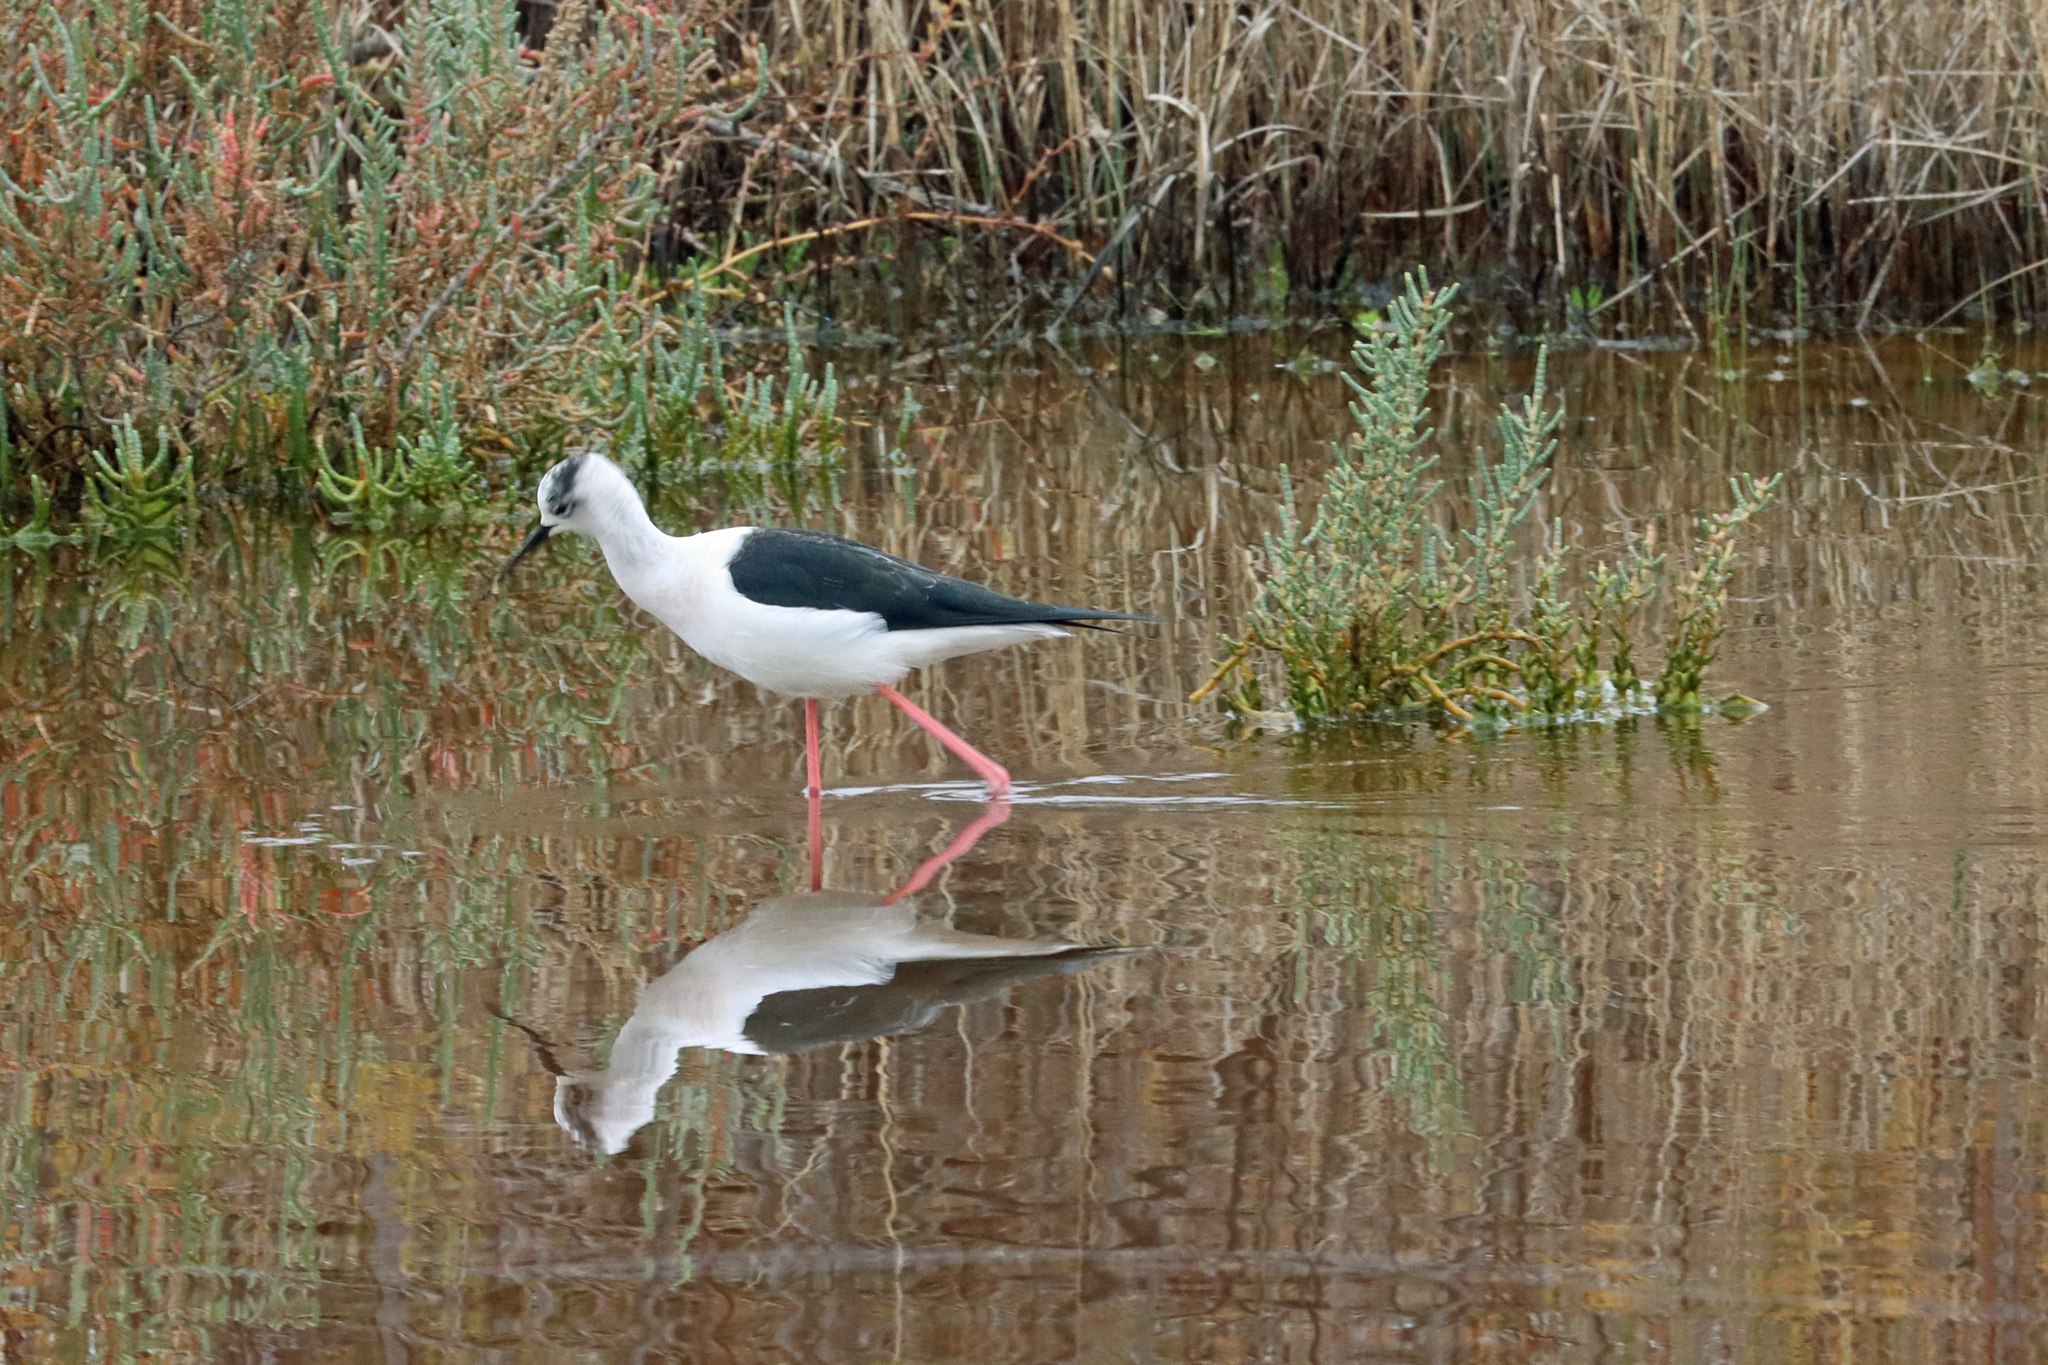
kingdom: Animalia
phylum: Chordata
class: Aves
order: Charadriiformes
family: Recurvirostridae
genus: Himantopus
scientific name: Himantopus himantopus
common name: Black-winged stilt
